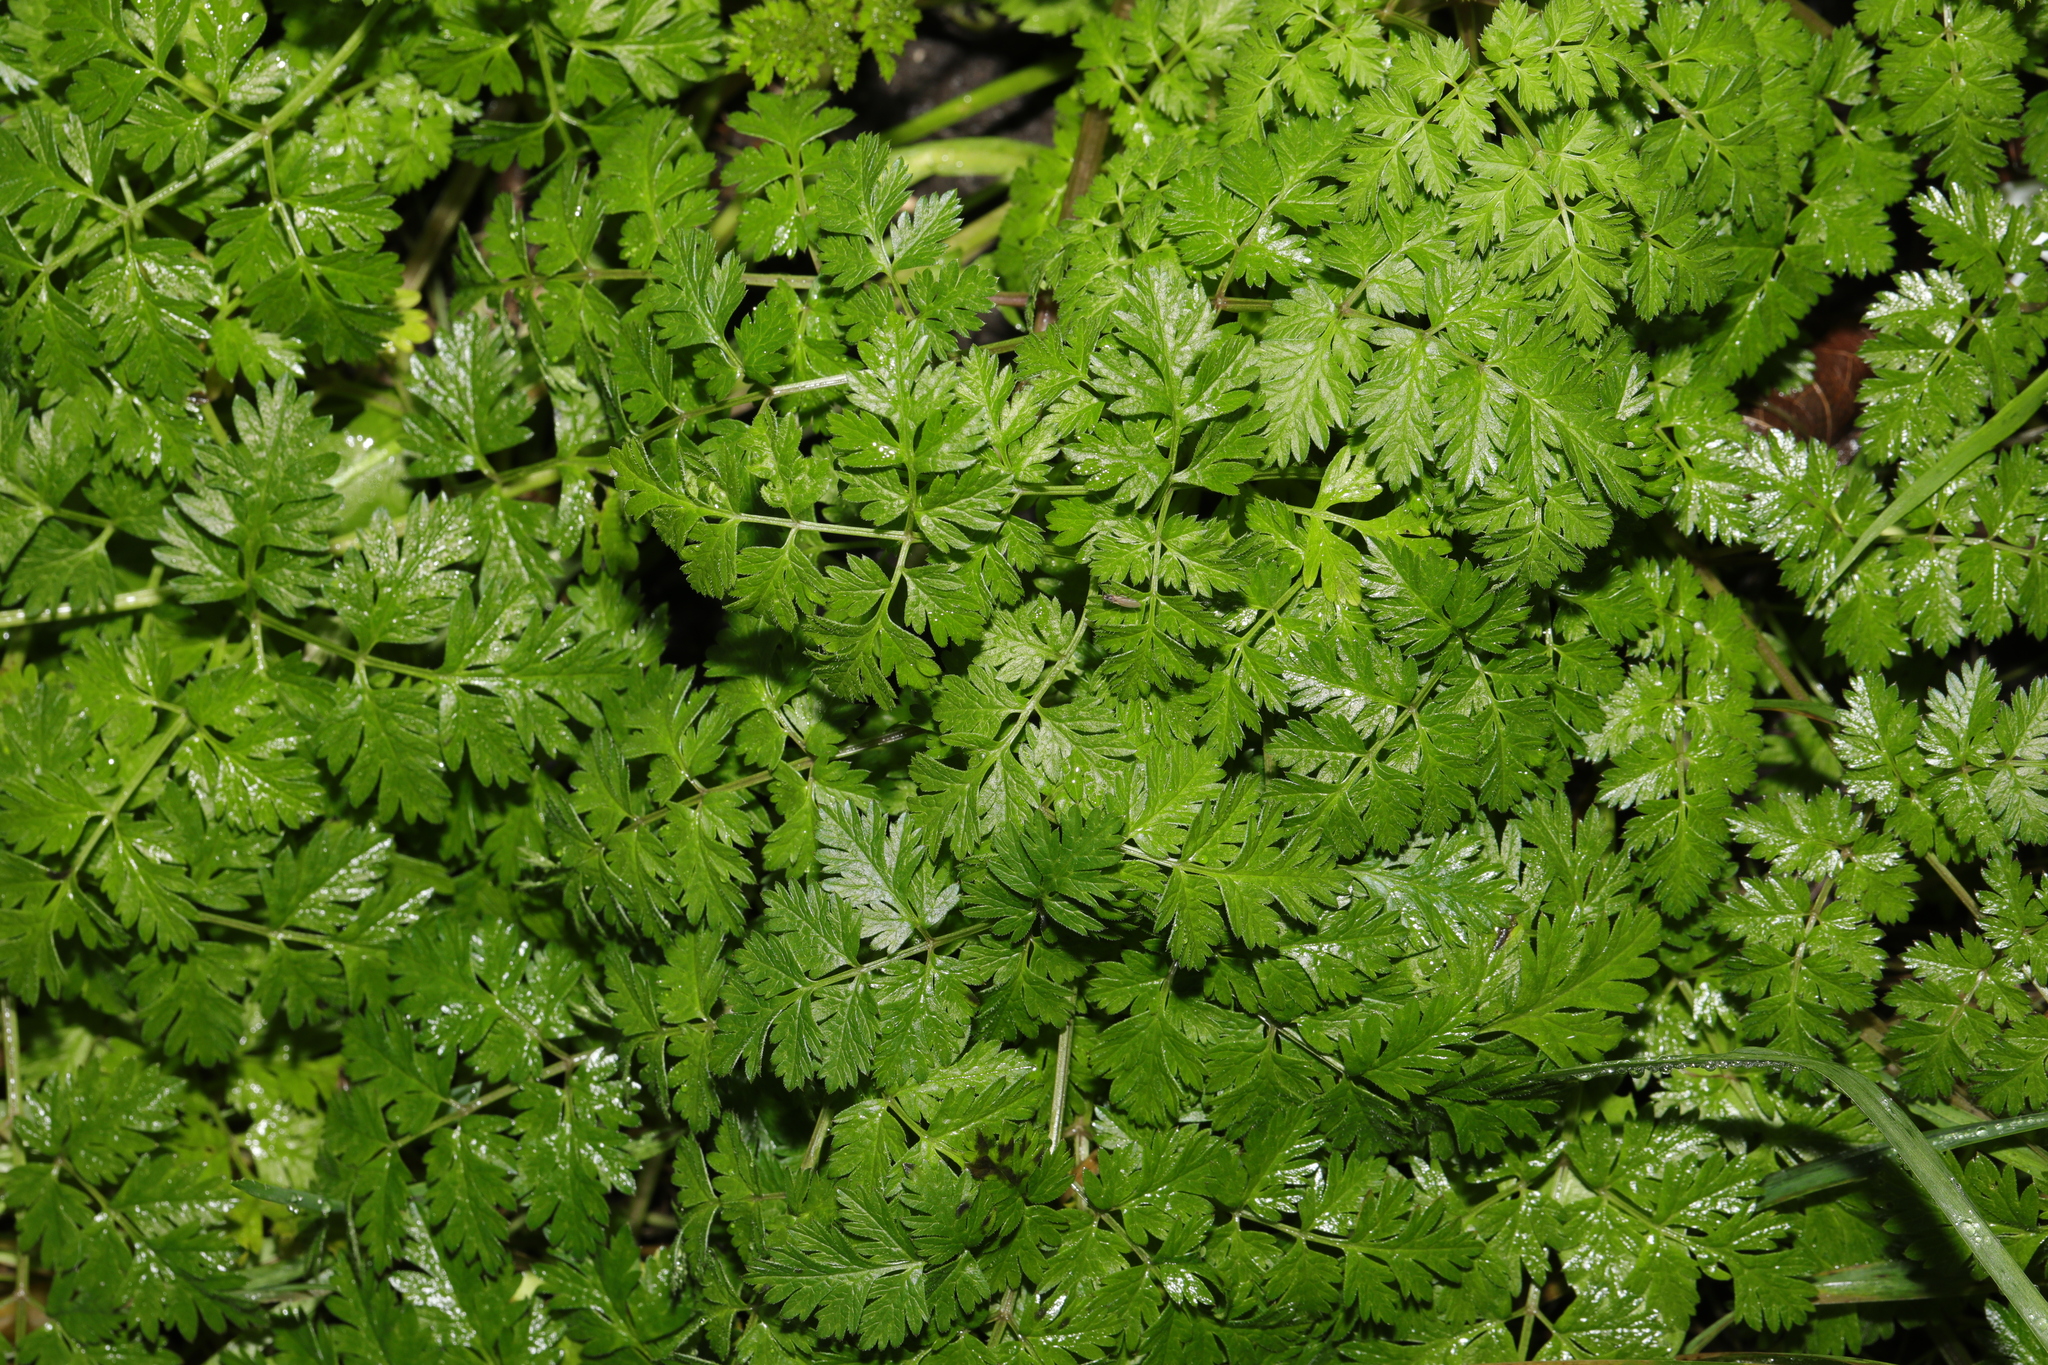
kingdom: Plantae
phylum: Tracheophyta
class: Magnoliopsida
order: Apiales
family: Apiaceae
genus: Anthriscus
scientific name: Anthriscus sylvestris
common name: Cow parsley
